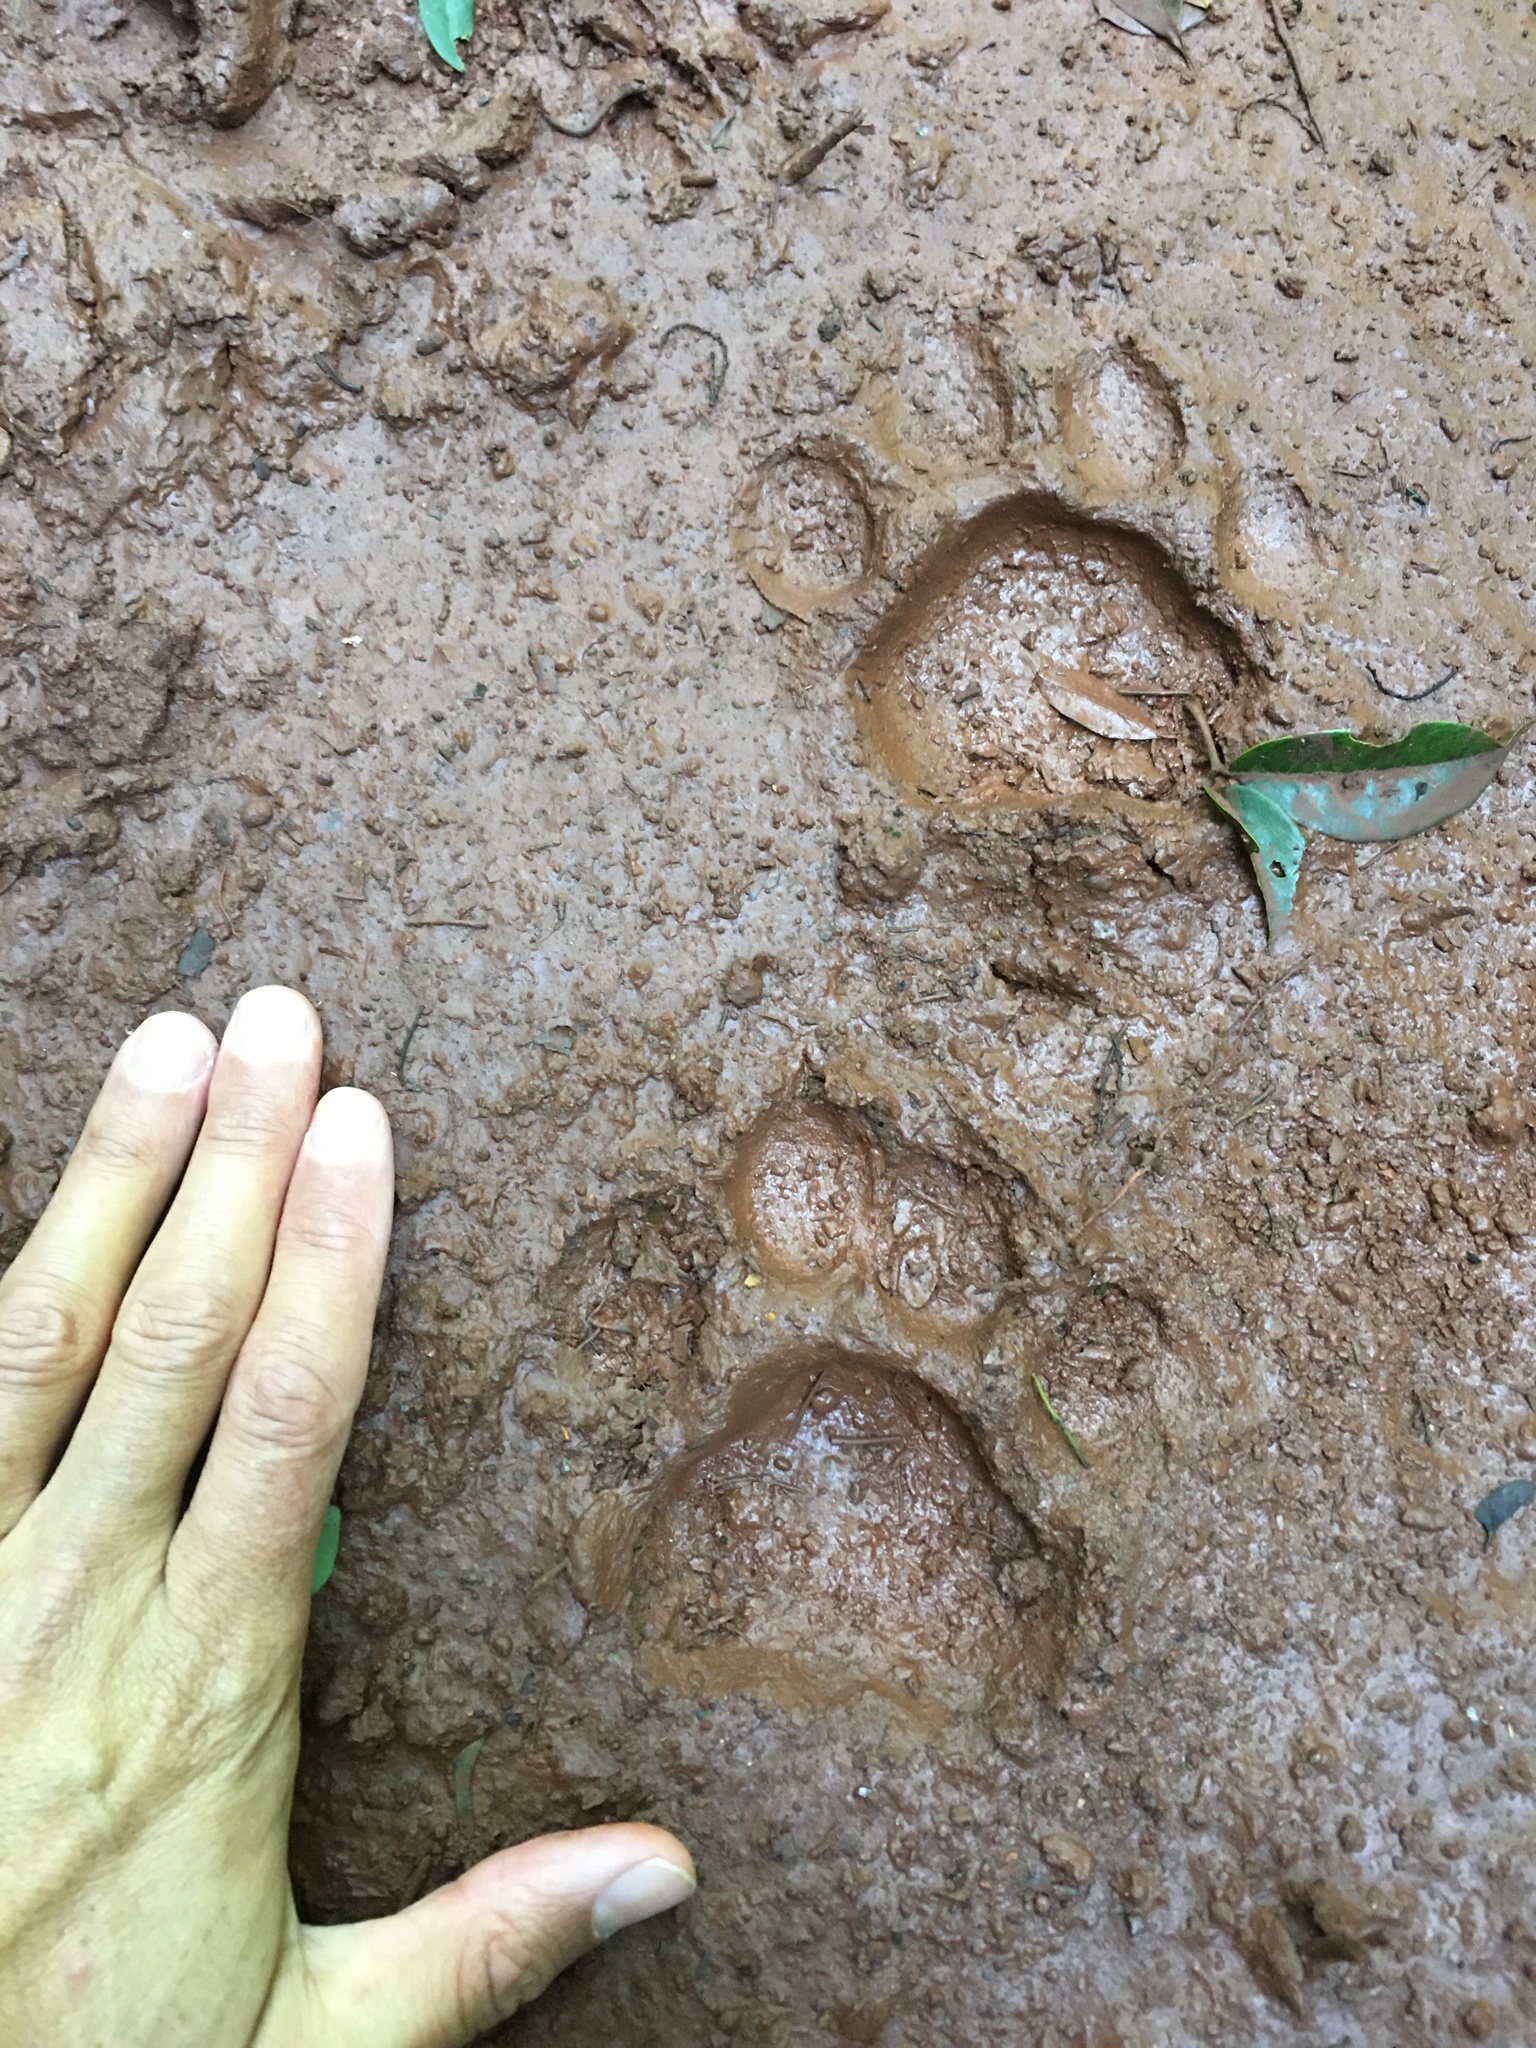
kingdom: Animalia
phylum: Chordata
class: Mammalia
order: Carnivora
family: Felidae
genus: Panthera
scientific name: Panthera onca
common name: Jaguar
